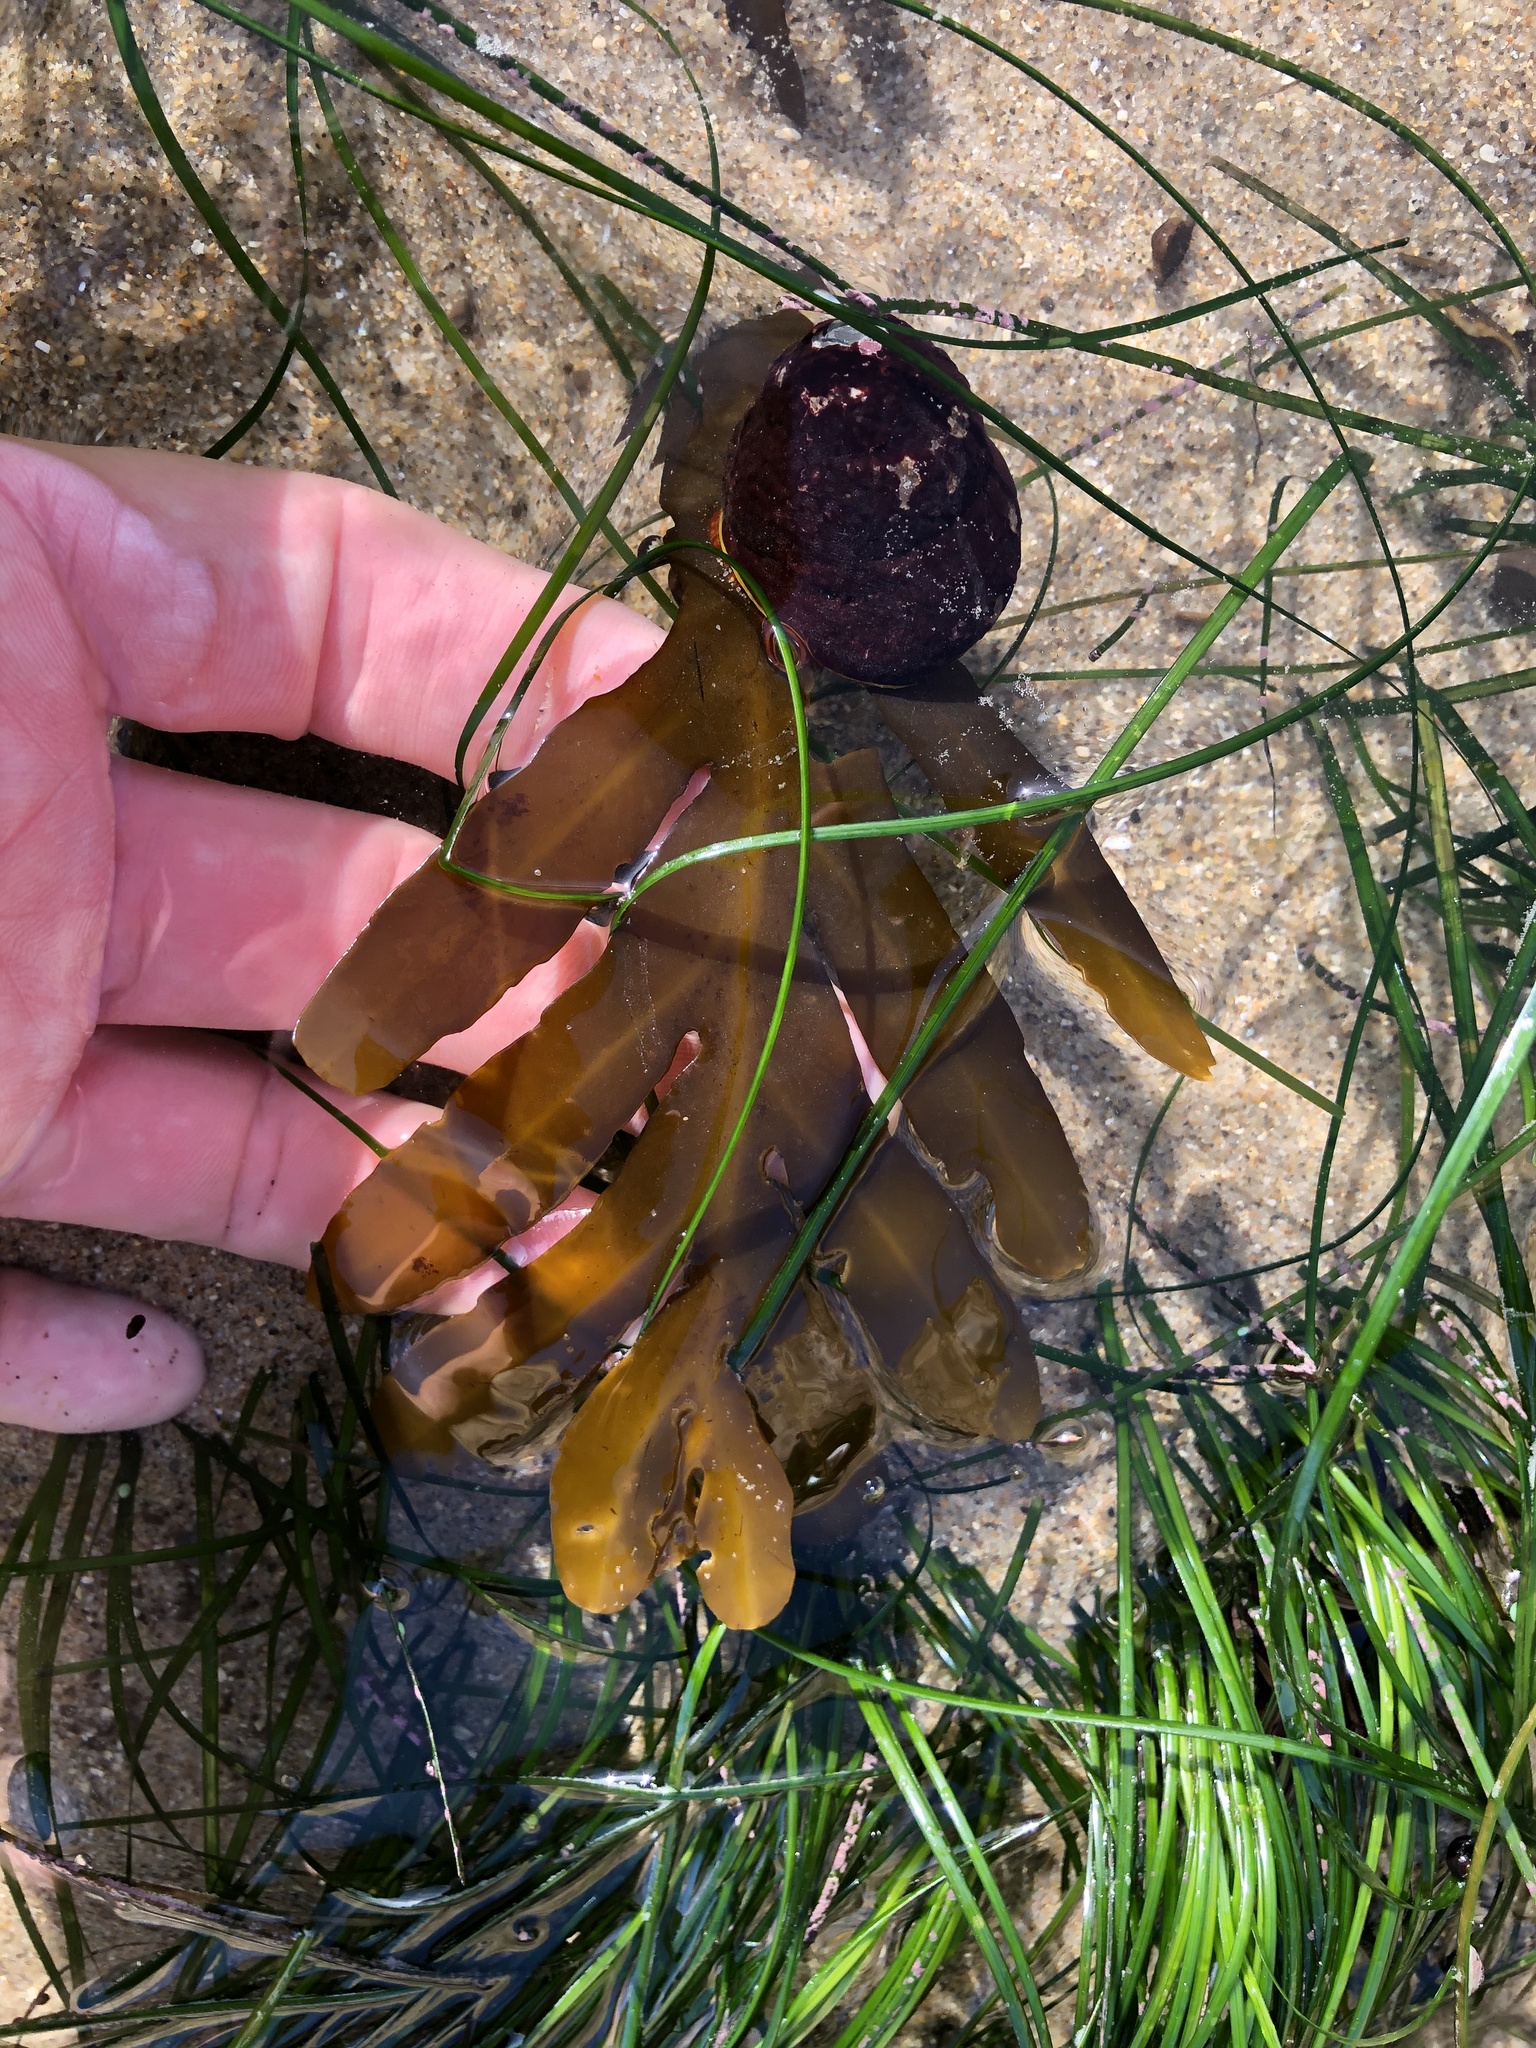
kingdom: Chromista
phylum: Ochrophyta
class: Phaeophyceae
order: Fucales
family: Sargassaceae
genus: Stephanocystis
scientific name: Stephanocystis
